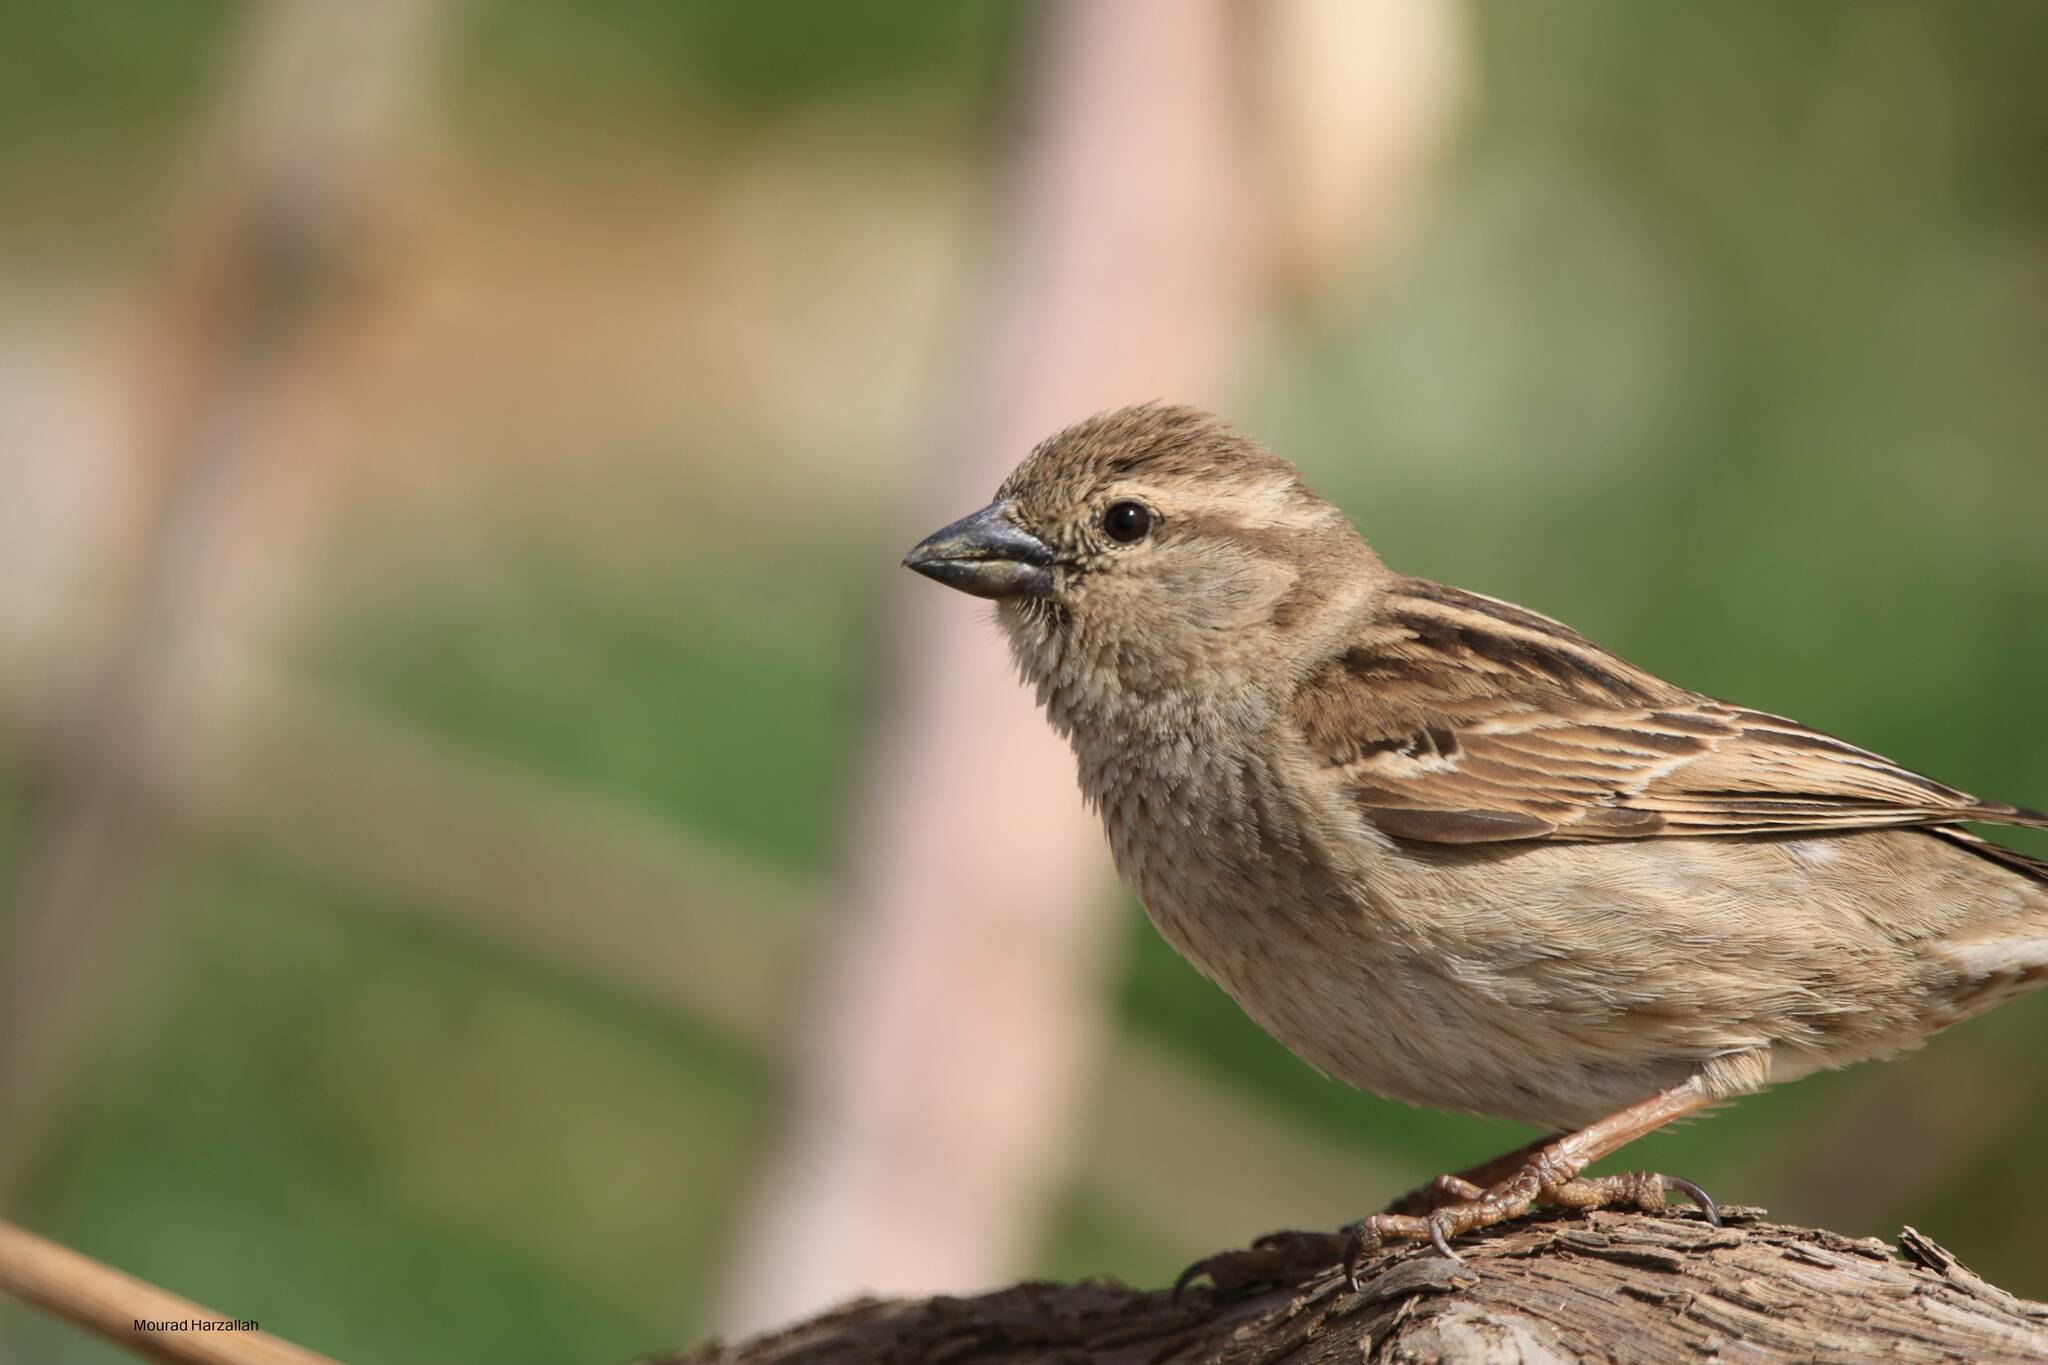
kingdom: Animalia
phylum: Chordata
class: Aves
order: Passeriformes
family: Passeridae
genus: Passer
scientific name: Passer hispaniolensis
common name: Spanish sparrow
